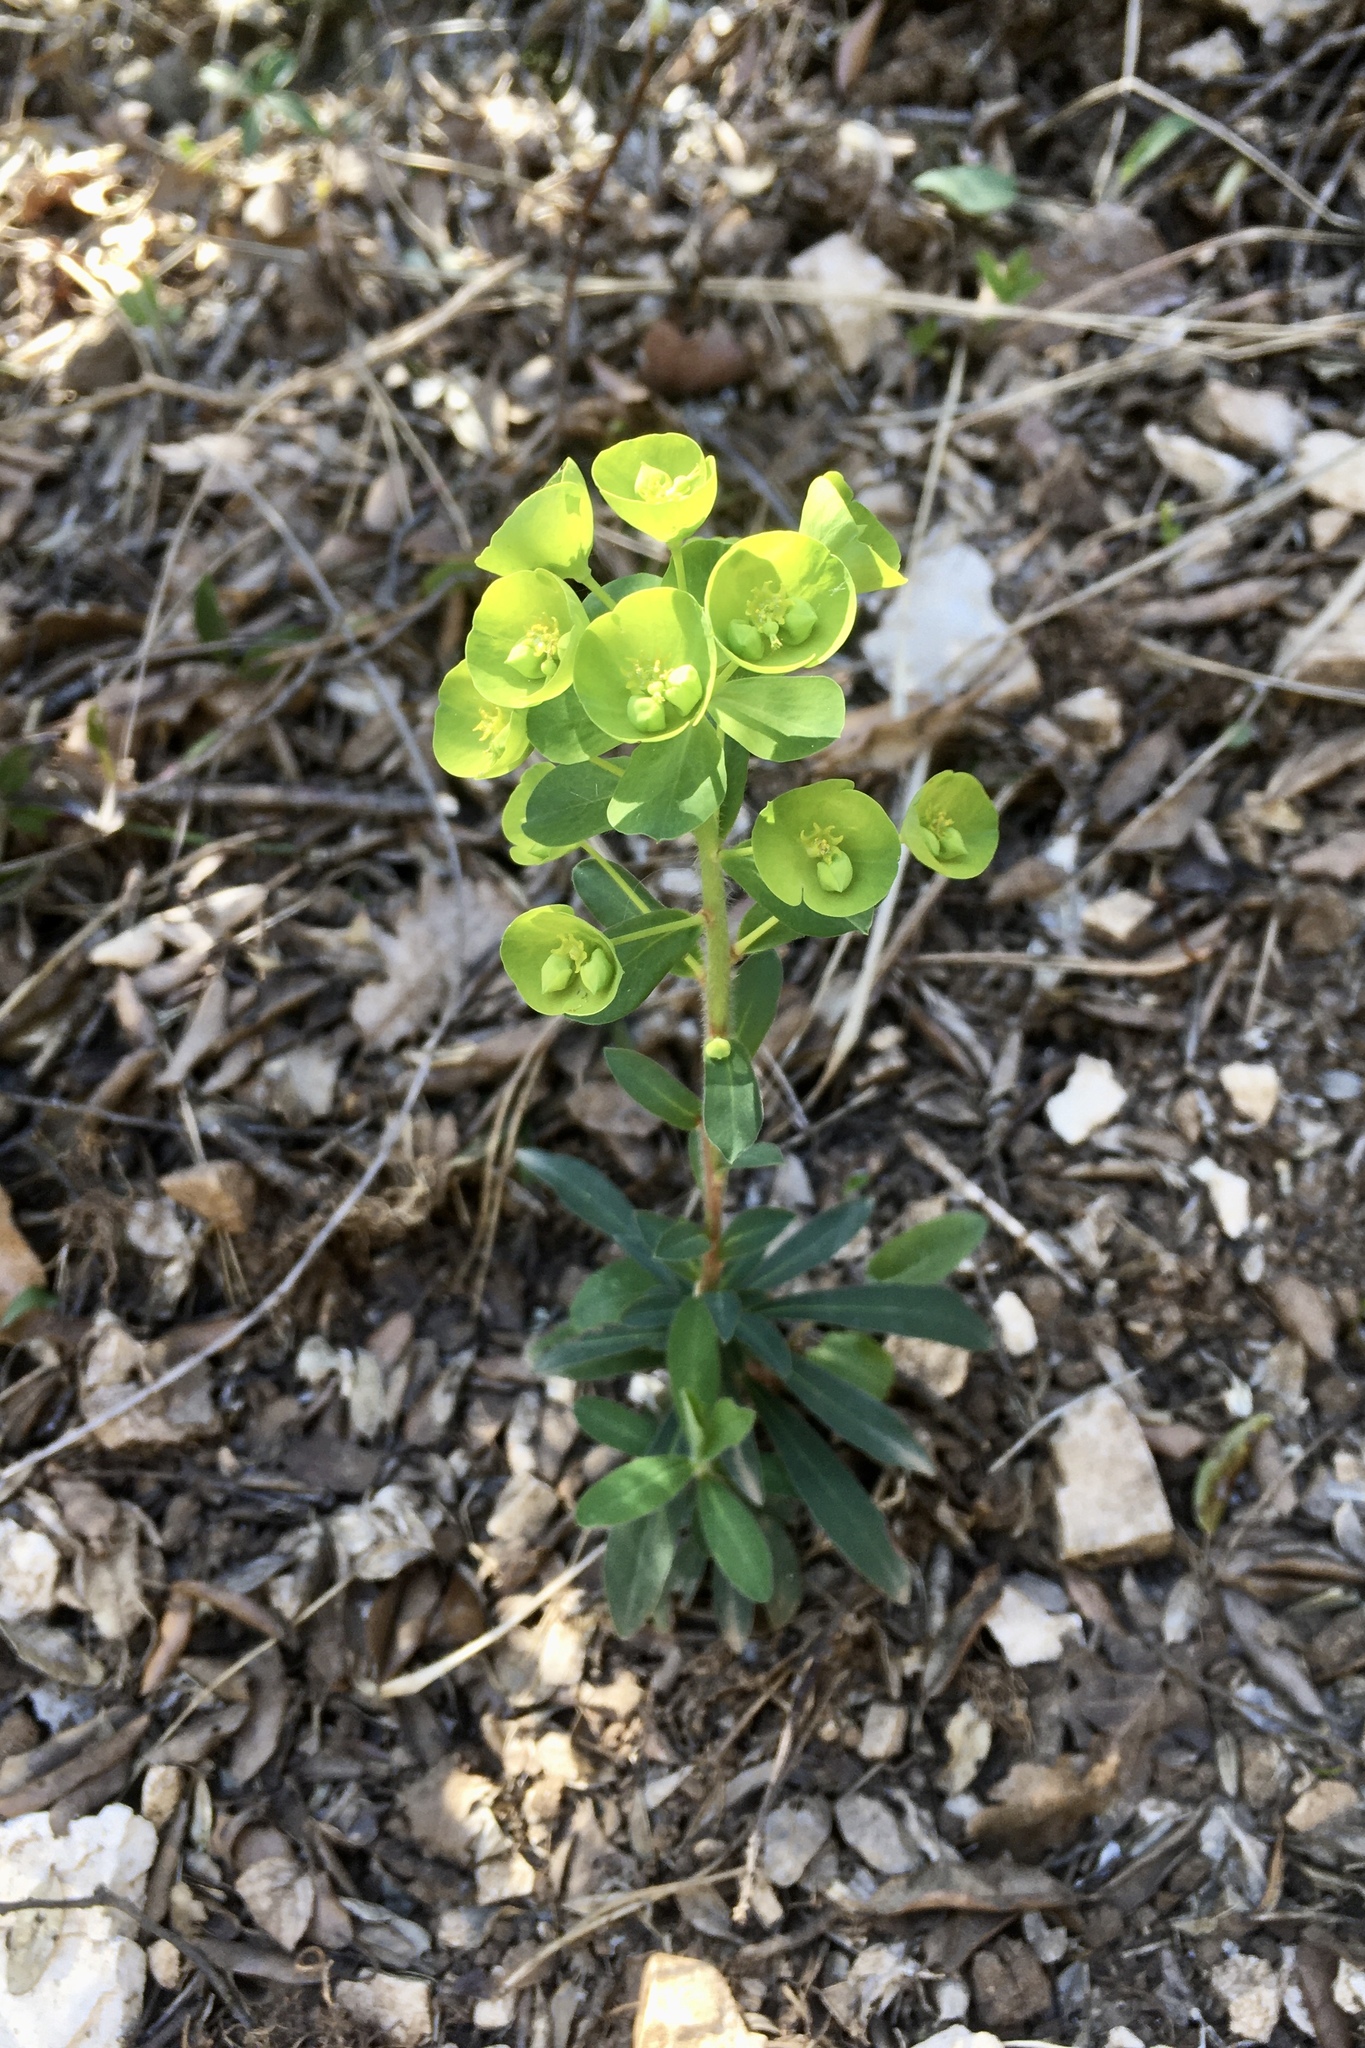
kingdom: Plantae
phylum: Tracheophyta
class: Magnoliopsida
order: Malpighiales
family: Euphorbiaceae
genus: Euphorbia
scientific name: Euphorbia amygdaloides
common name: Wood spurge
